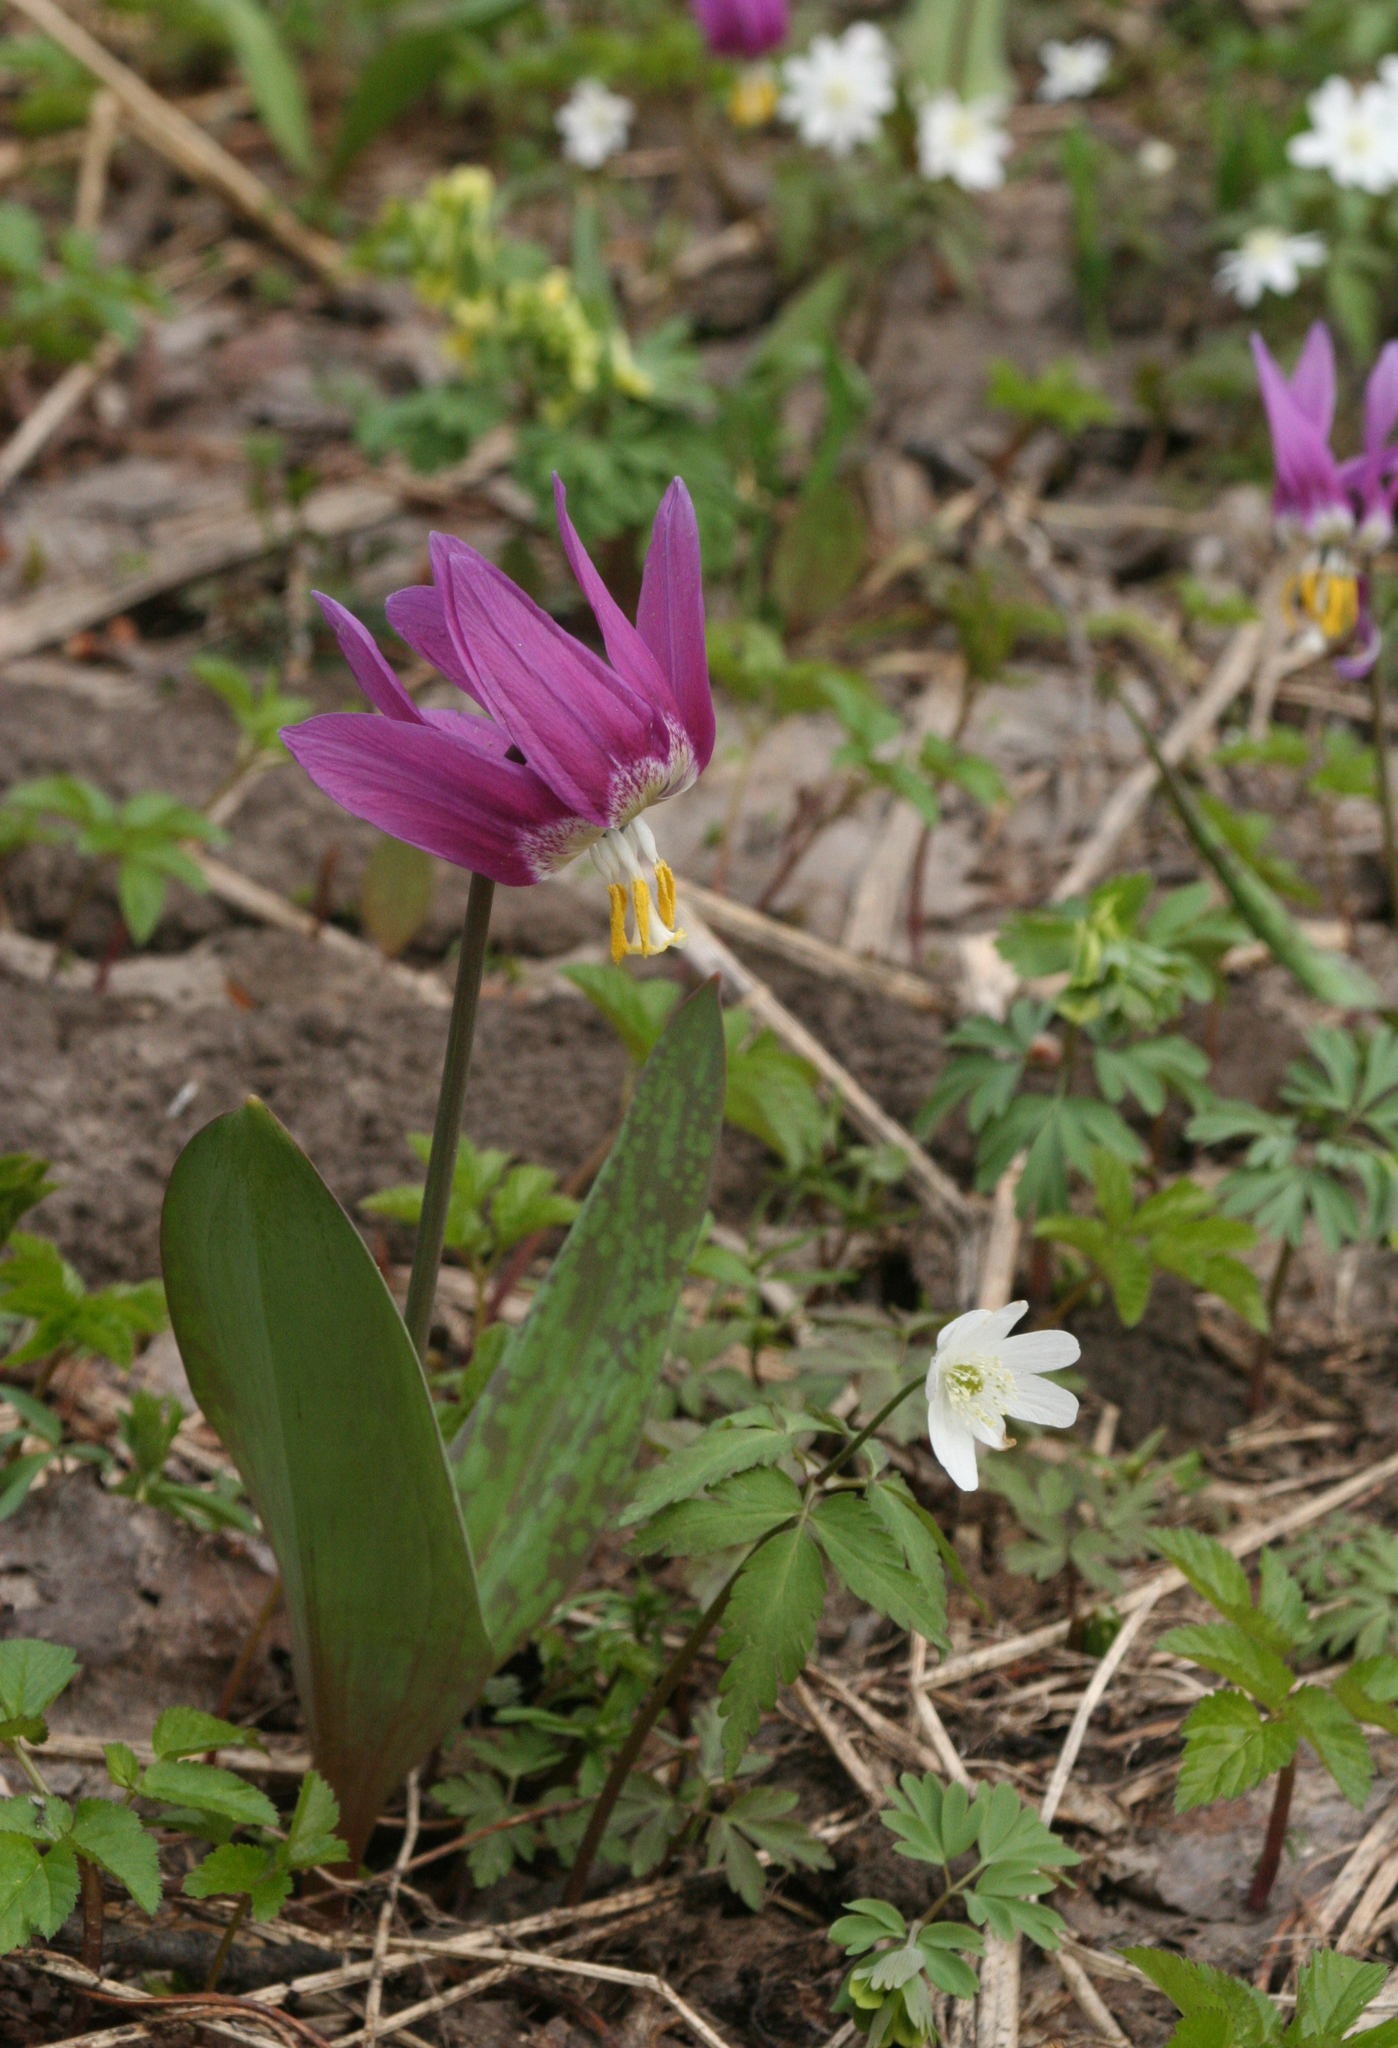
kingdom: Plantae
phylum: Tracheophyta
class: Liliopsida
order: Liliales
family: Liliaceae
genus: Erythronium
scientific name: Erythronium sibiricum
